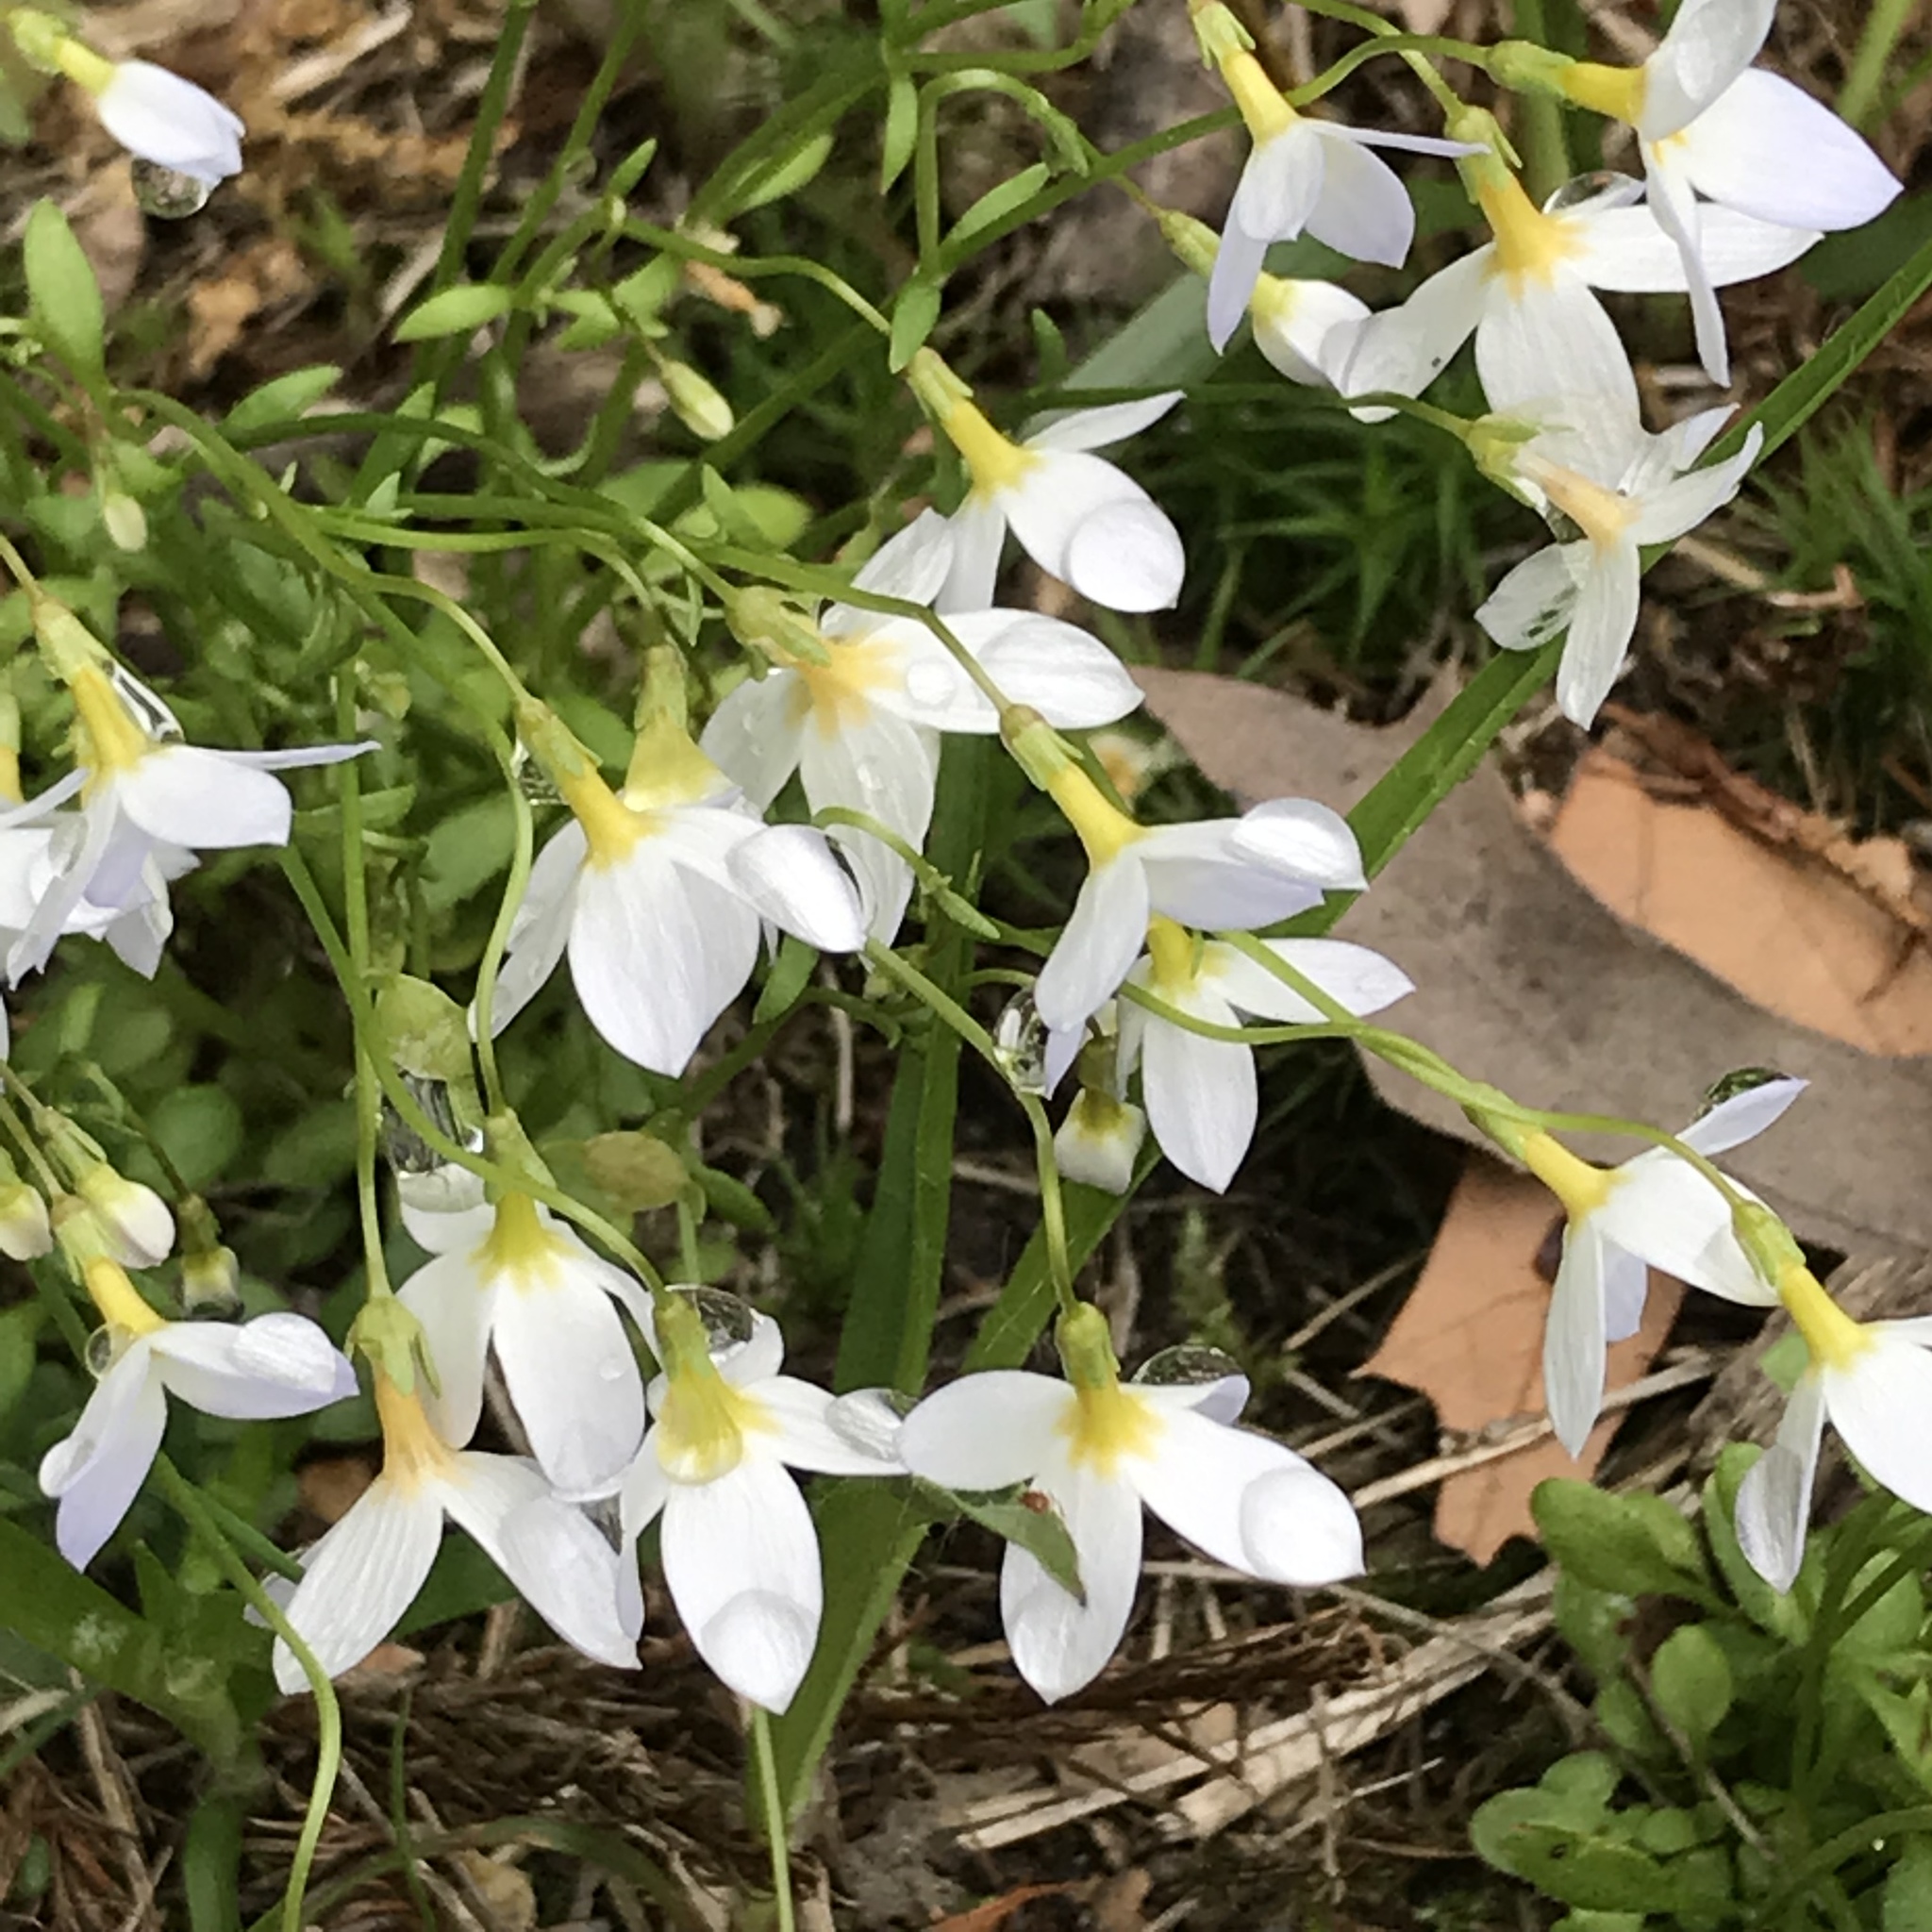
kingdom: Plantae
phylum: Tracheophyta
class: Magnoliopsida
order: Gentianales
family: Rubiaceae
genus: Houstonia
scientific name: Houstonia caerulea
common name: Bluets
